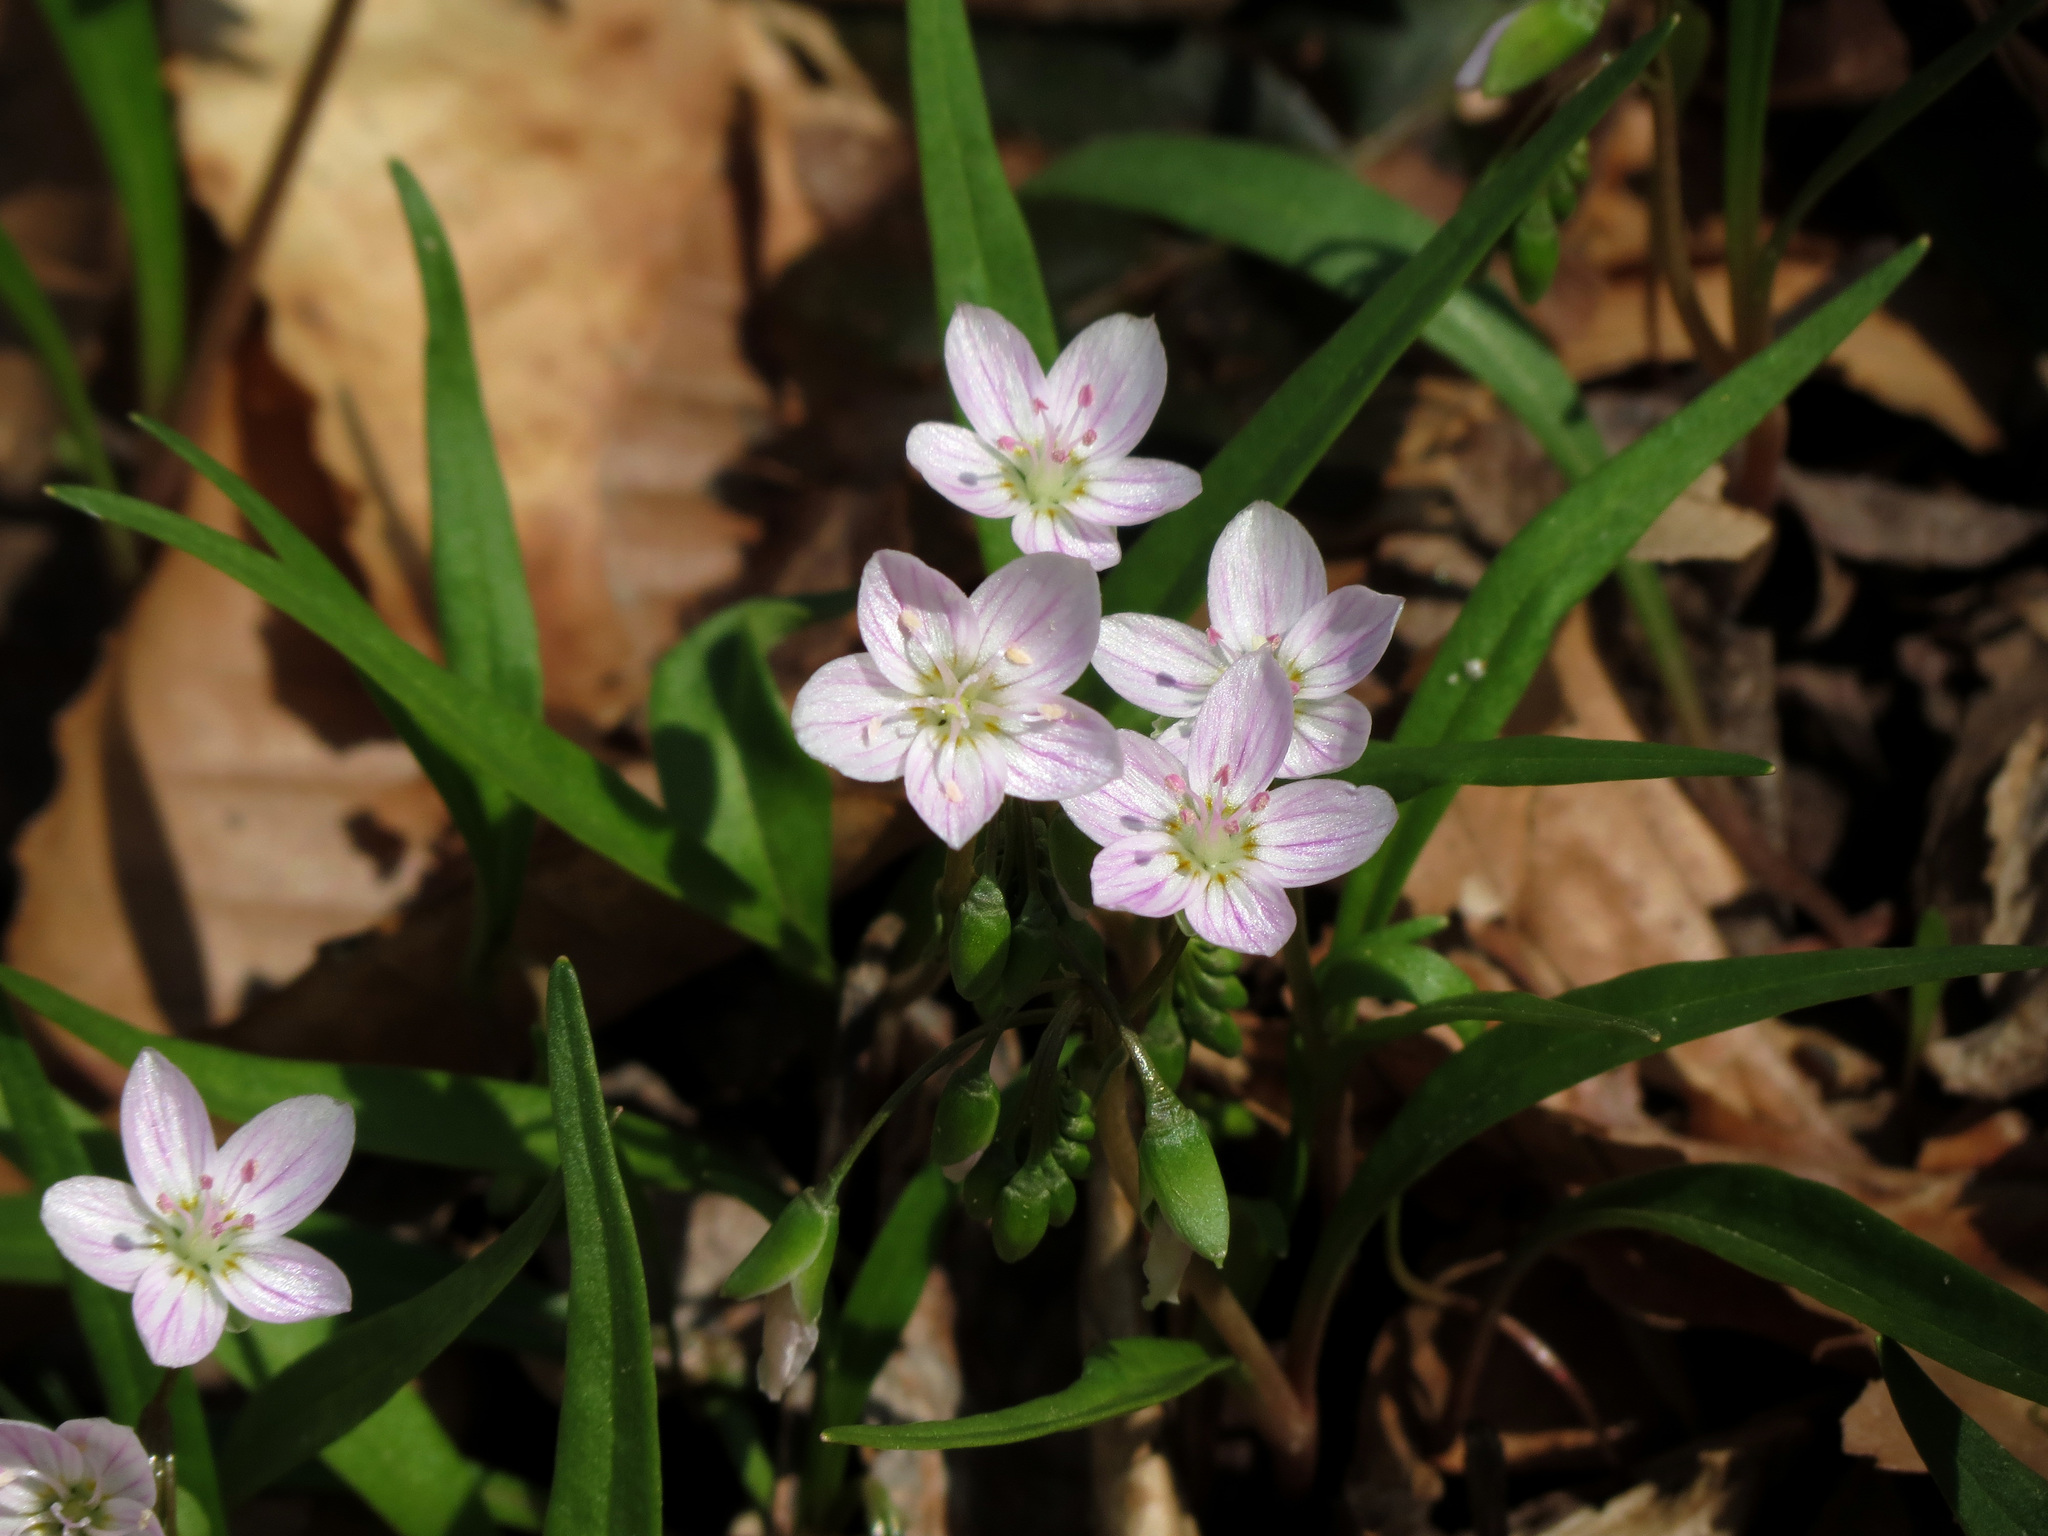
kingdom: Plantae
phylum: Tracheophyta
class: Magnoliopsida
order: Caryophyllales
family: Montiaceae
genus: Claytonia
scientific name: Claytonia virginica
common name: Virginia springbeauty
